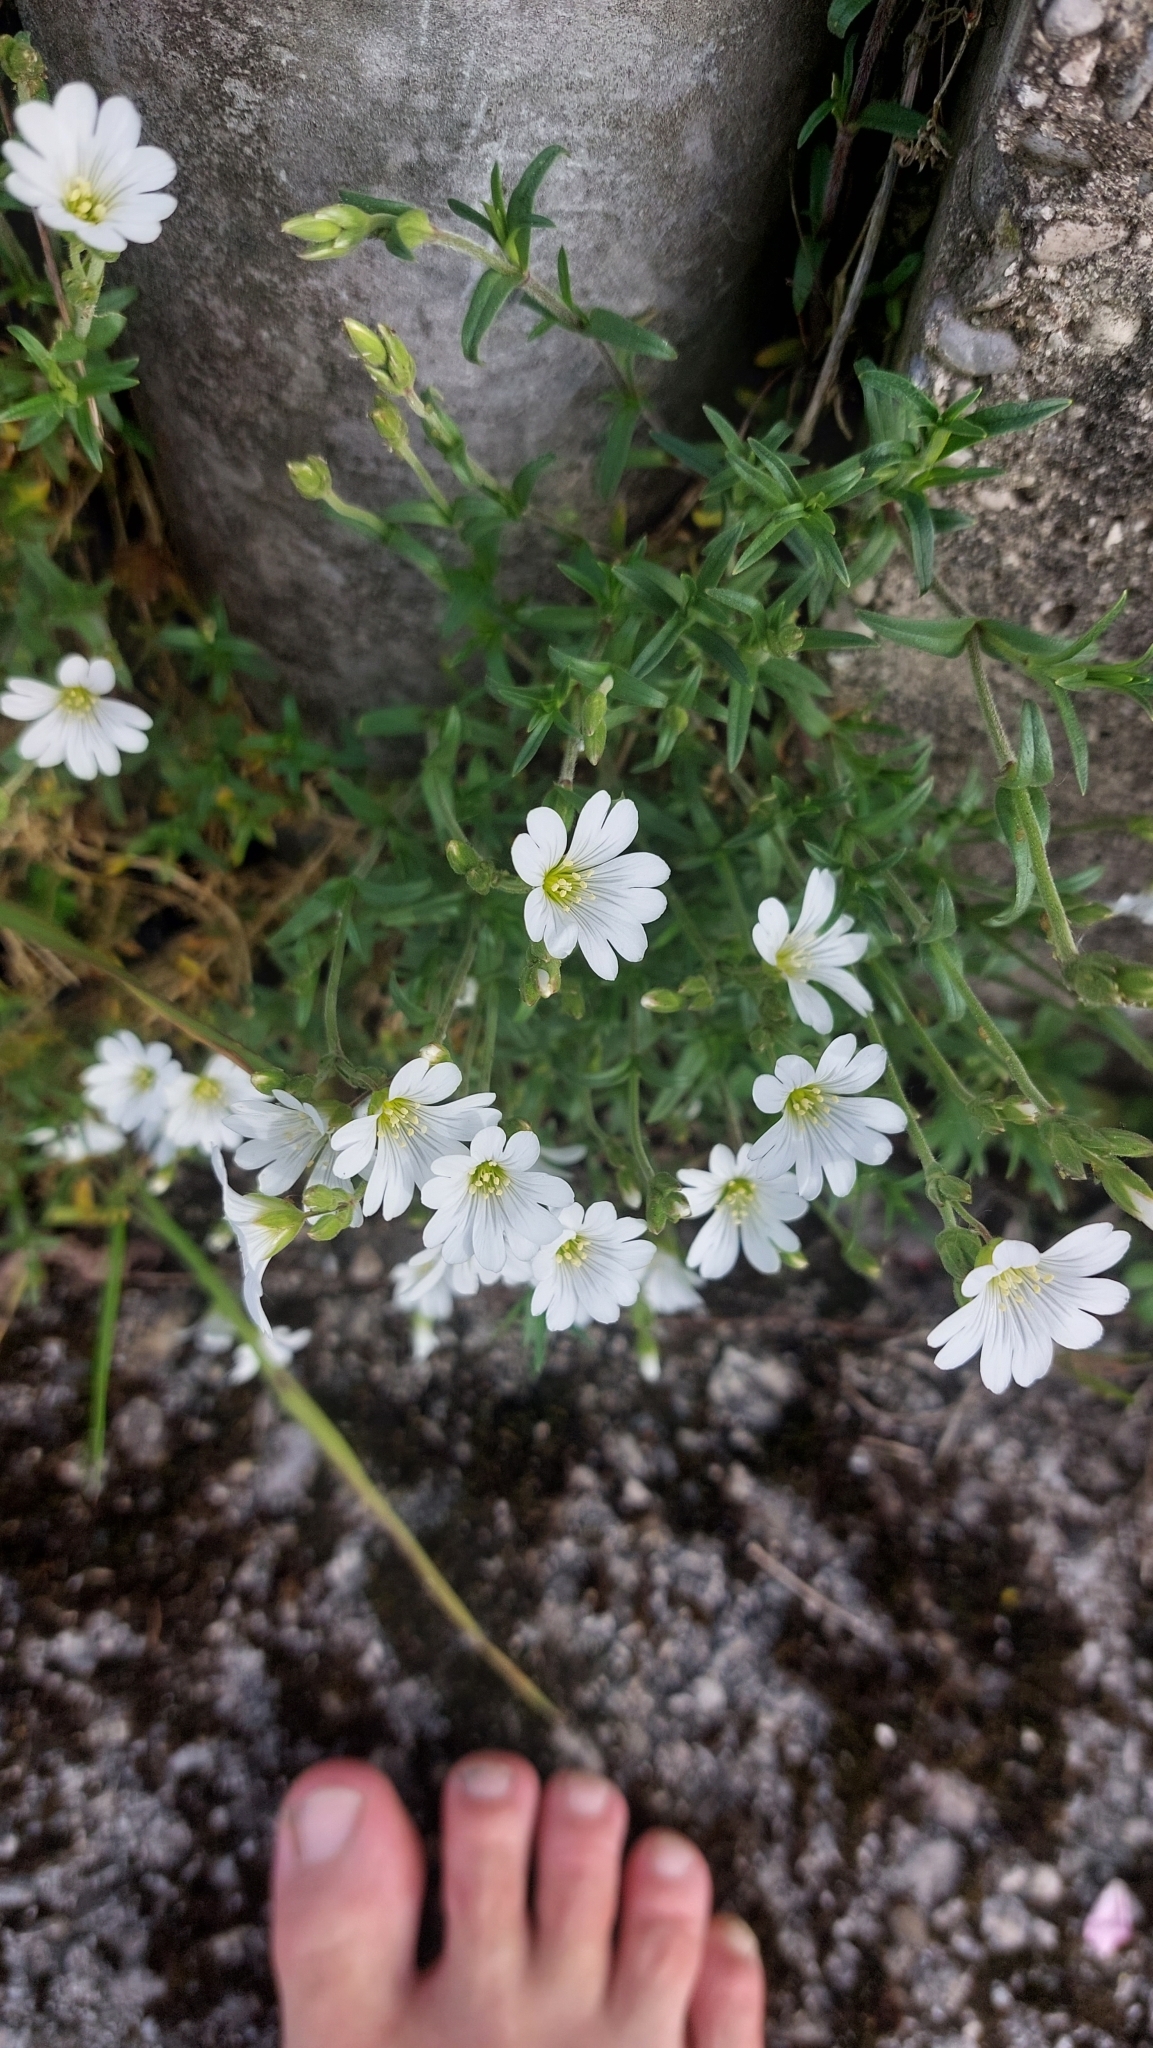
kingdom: Plantae
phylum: Tracheophyta
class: Magnoliopsida
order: Caryophyllales
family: Caryophyllaceae
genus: Cerastium
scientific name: Cerastium arvense
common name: Field mouse-ear
